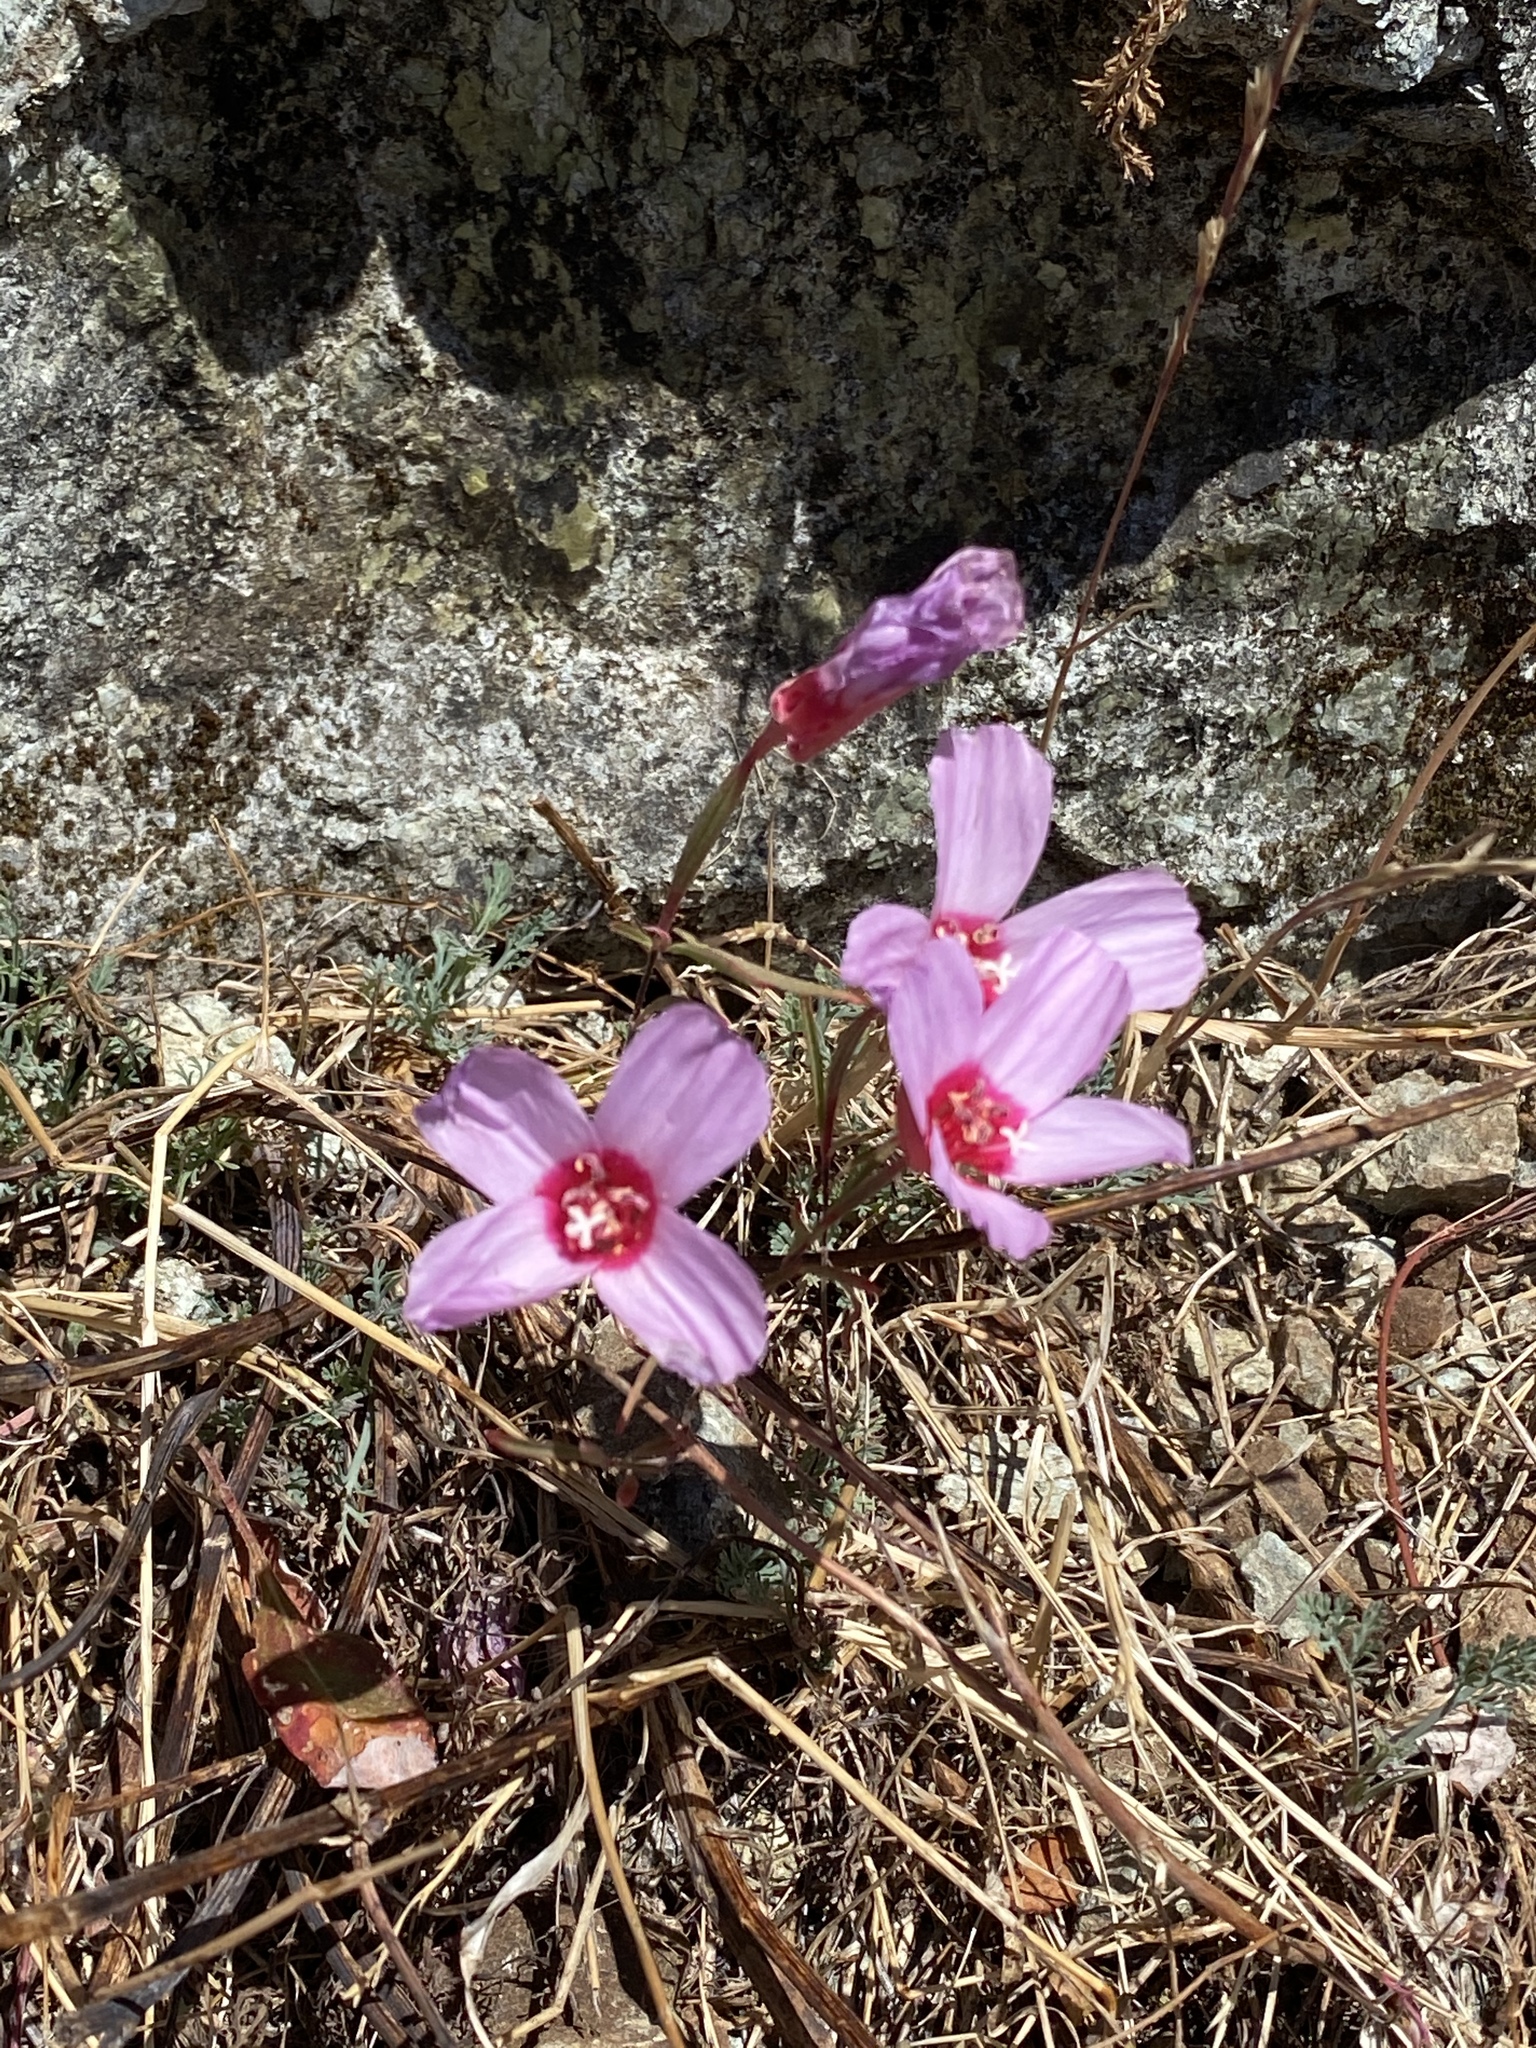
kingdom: Plantae
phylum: Tracheophyta
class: Magnoliopsida
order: Myrtales
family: Onagraceae
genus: Clarkia
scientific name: Clarkia rubicunda
